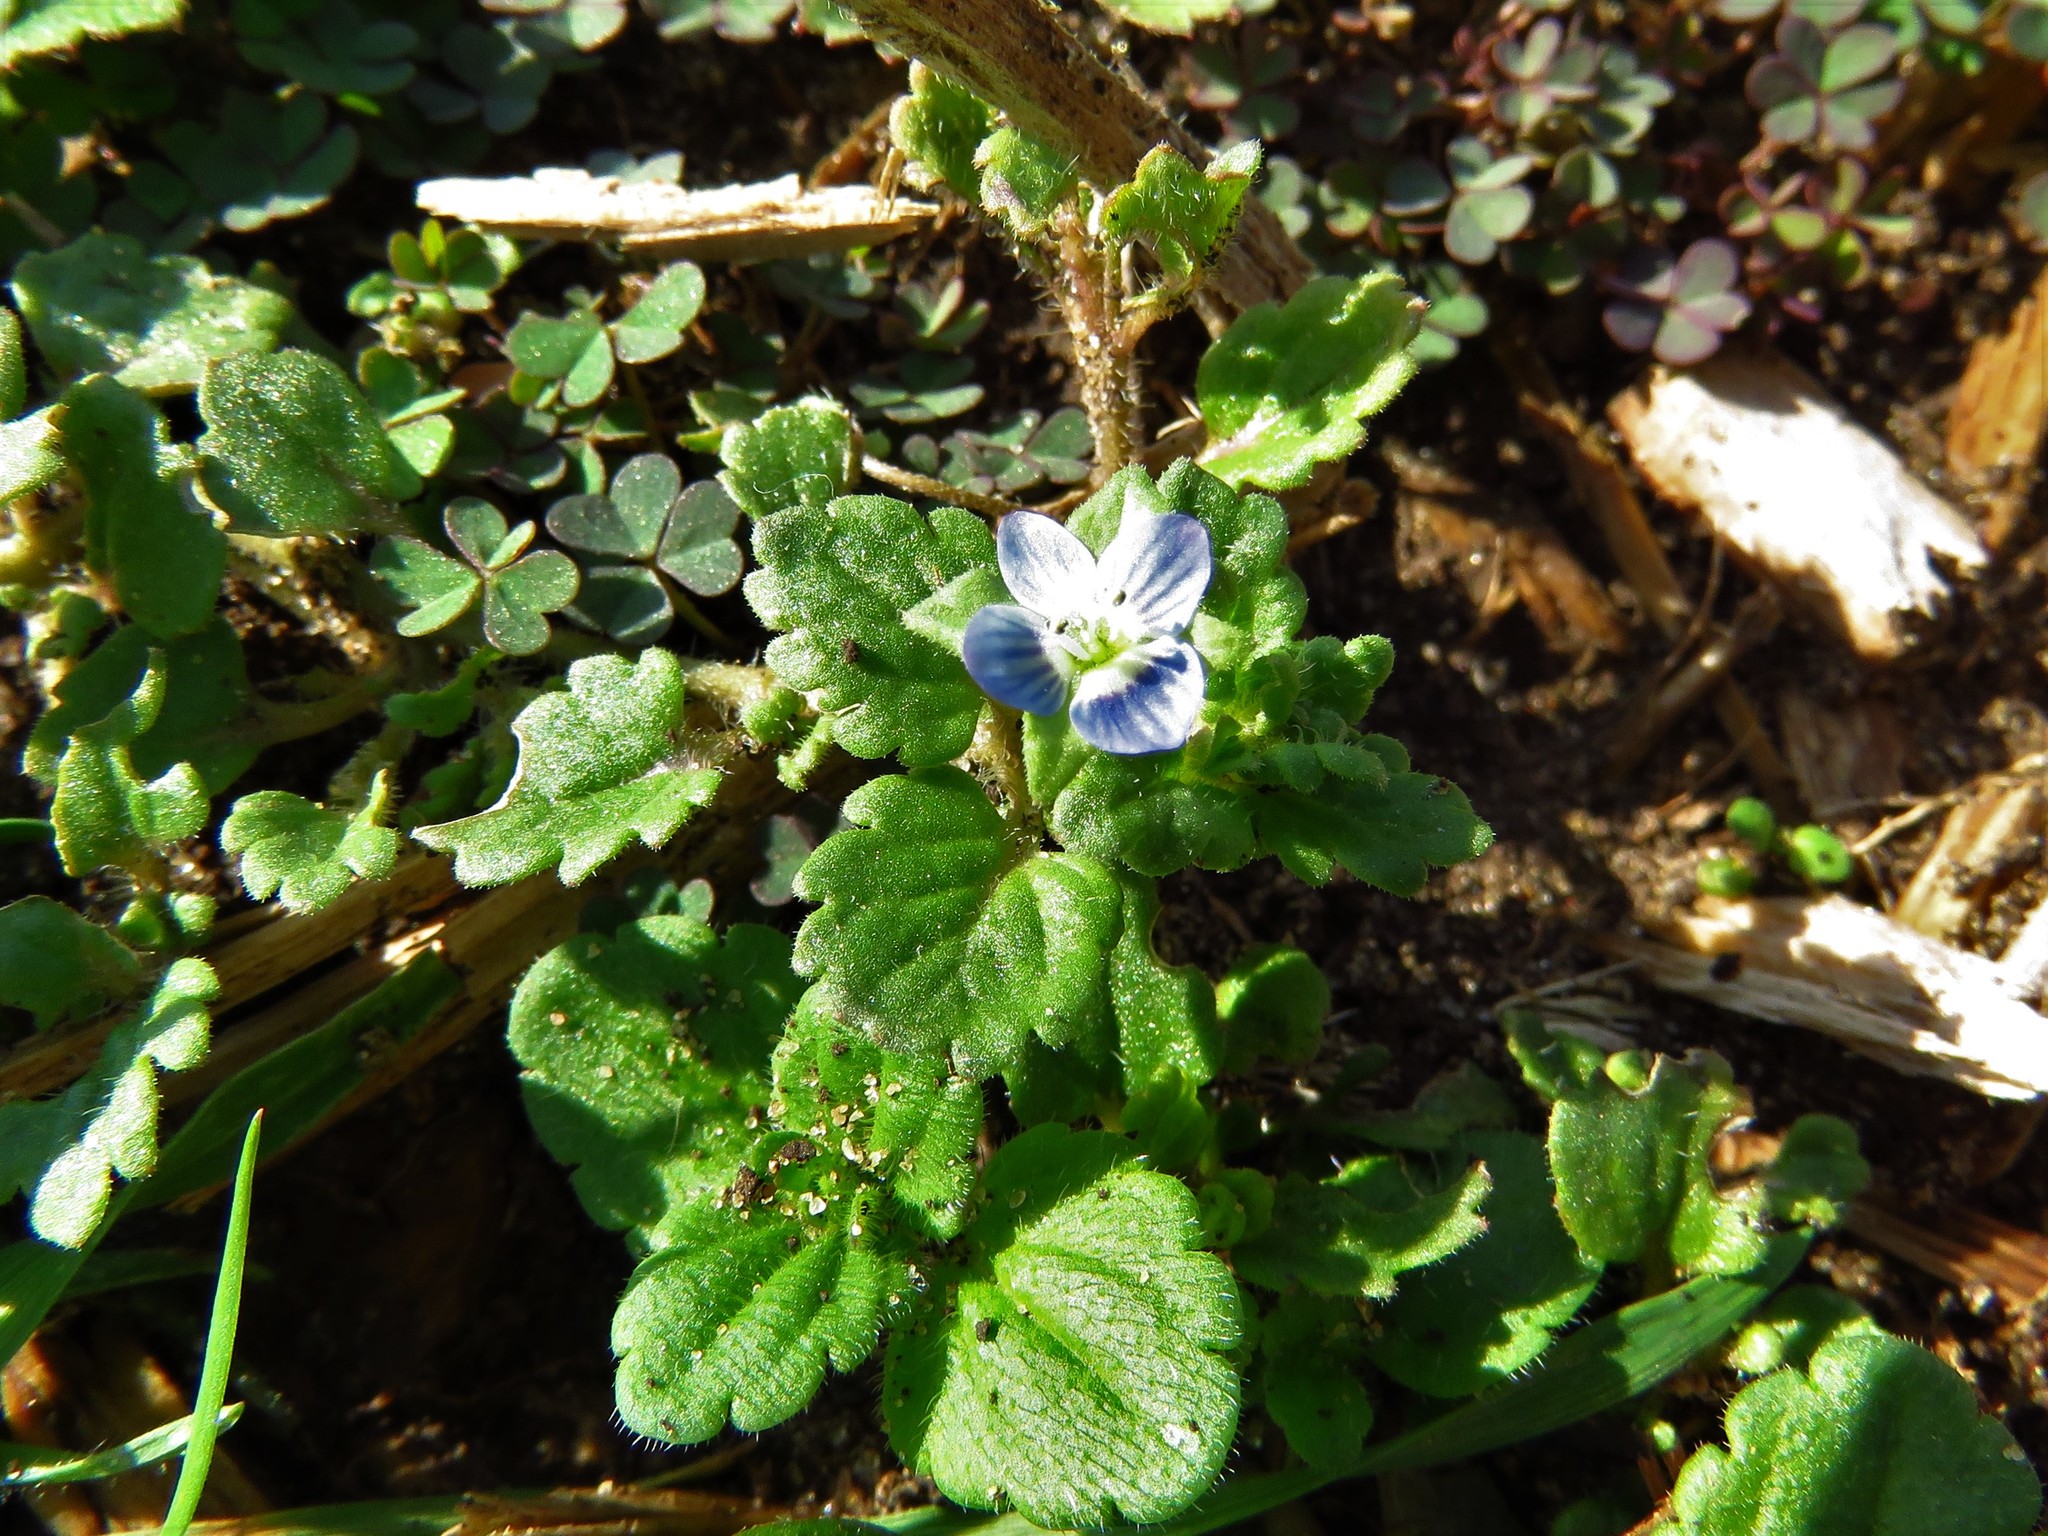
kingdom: Plantae
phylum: Tracheophyta
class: Magnoliopsida
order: Lamiales
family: Plantaginaceae
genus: Veronica
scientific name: Veronica polita
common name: Grey field-speedwell
